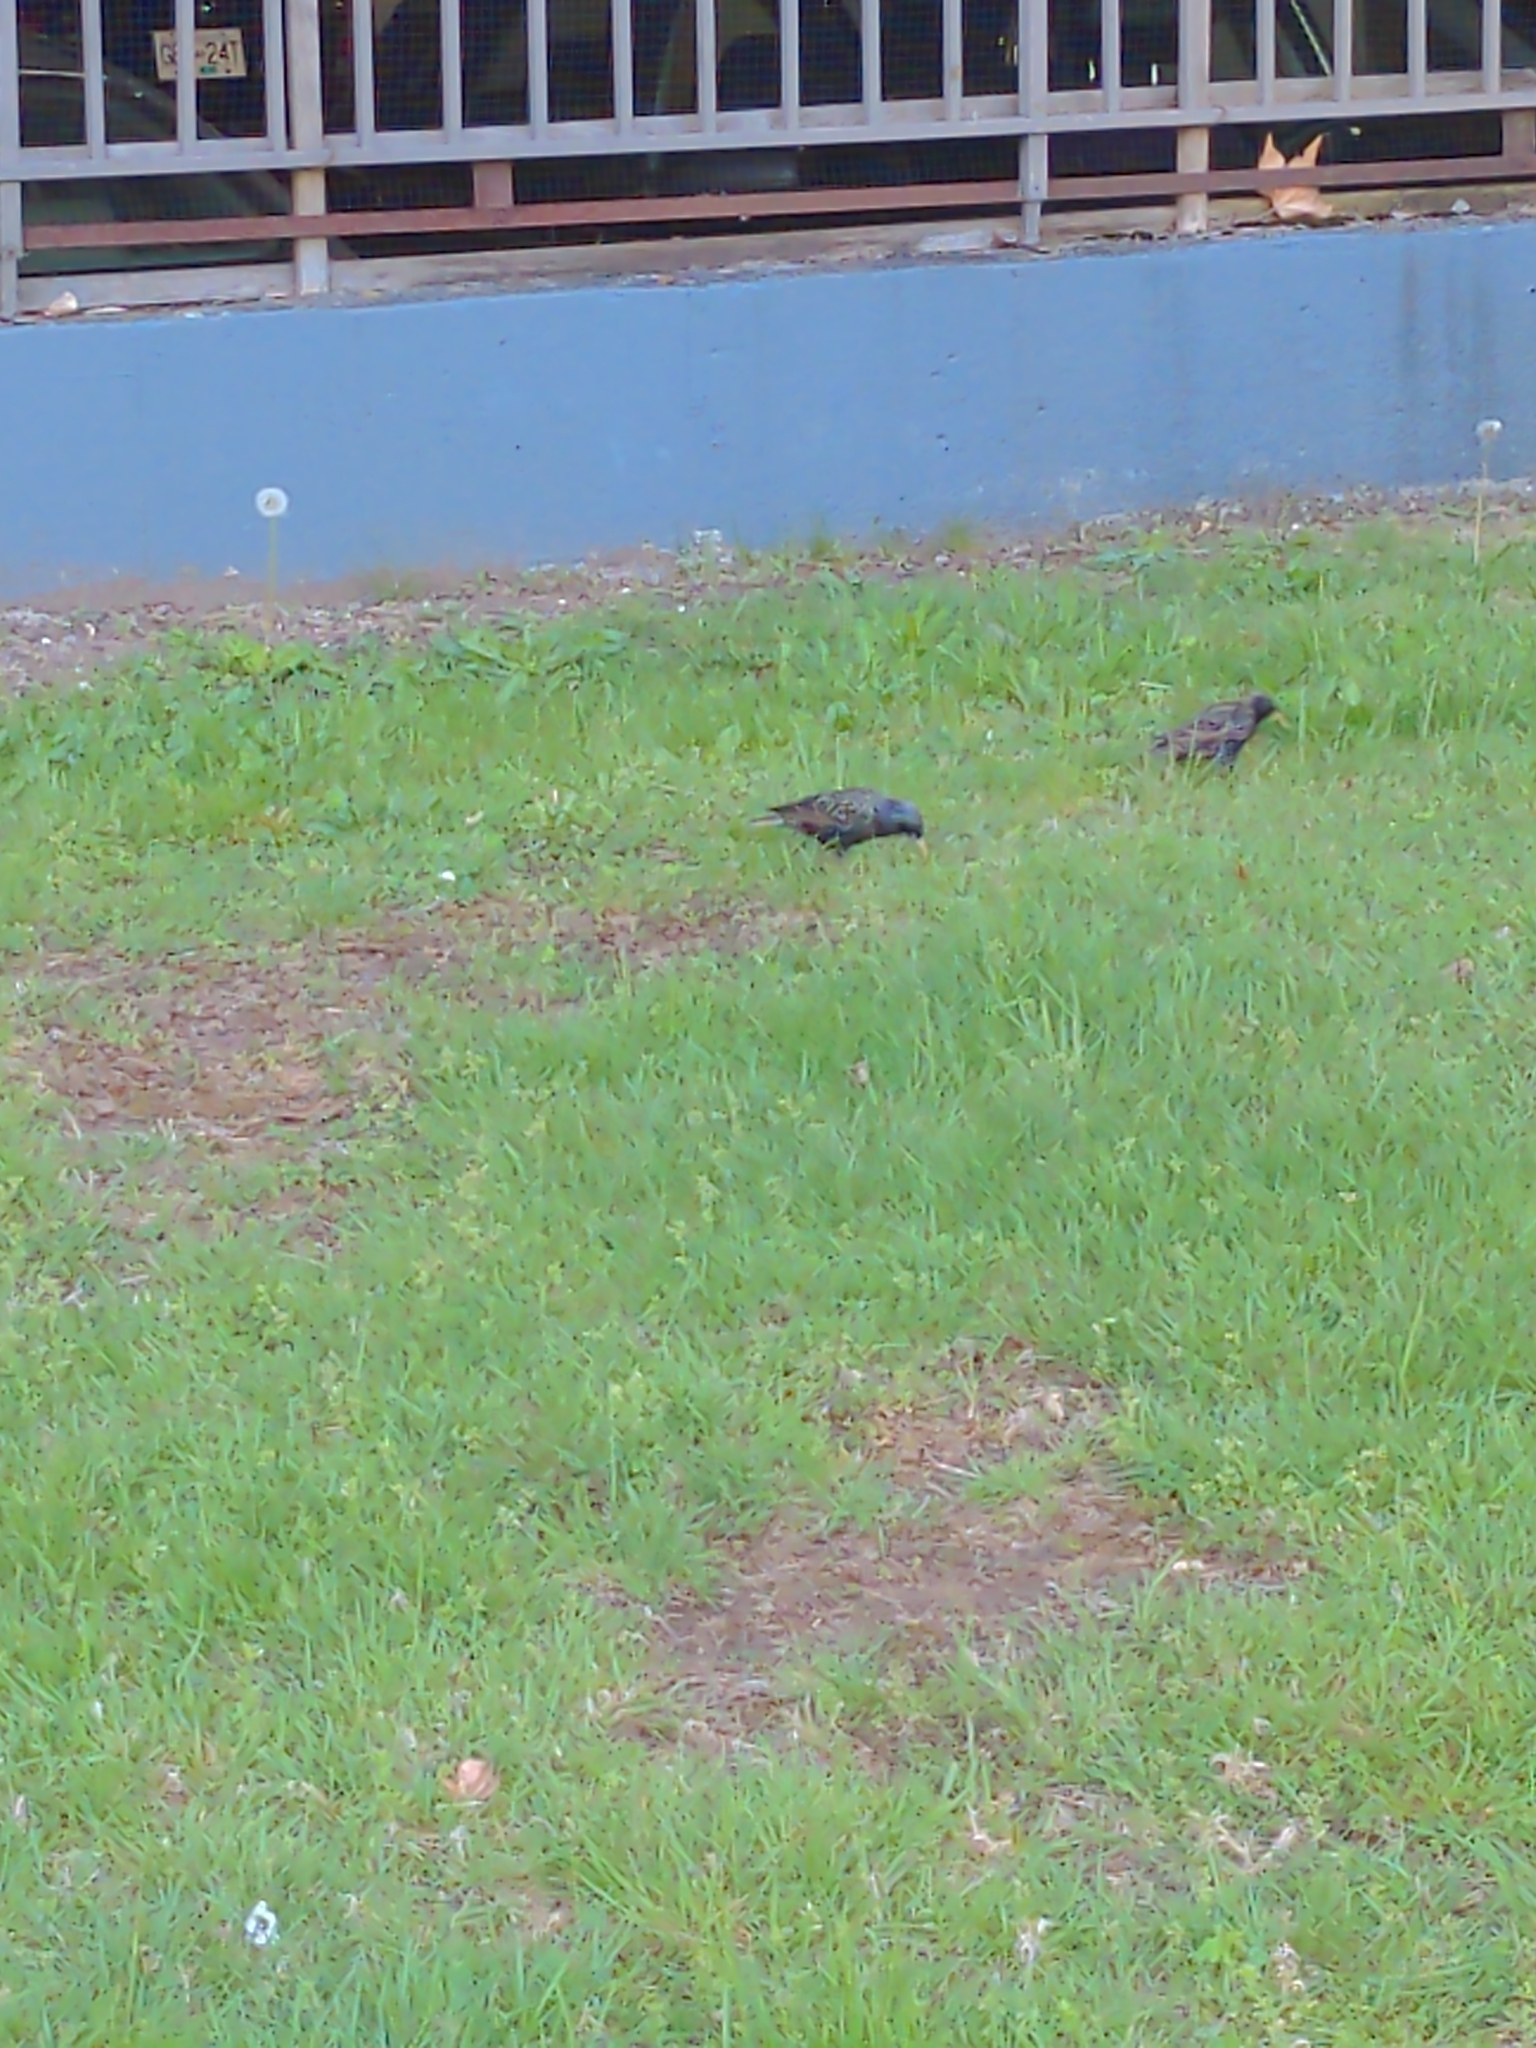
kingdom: Animalia
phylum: Chordata
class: Aves
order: Passeriformes
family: Sturnidae
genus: Sturnus
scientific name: Sturnus vulgaris
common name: Common starling
